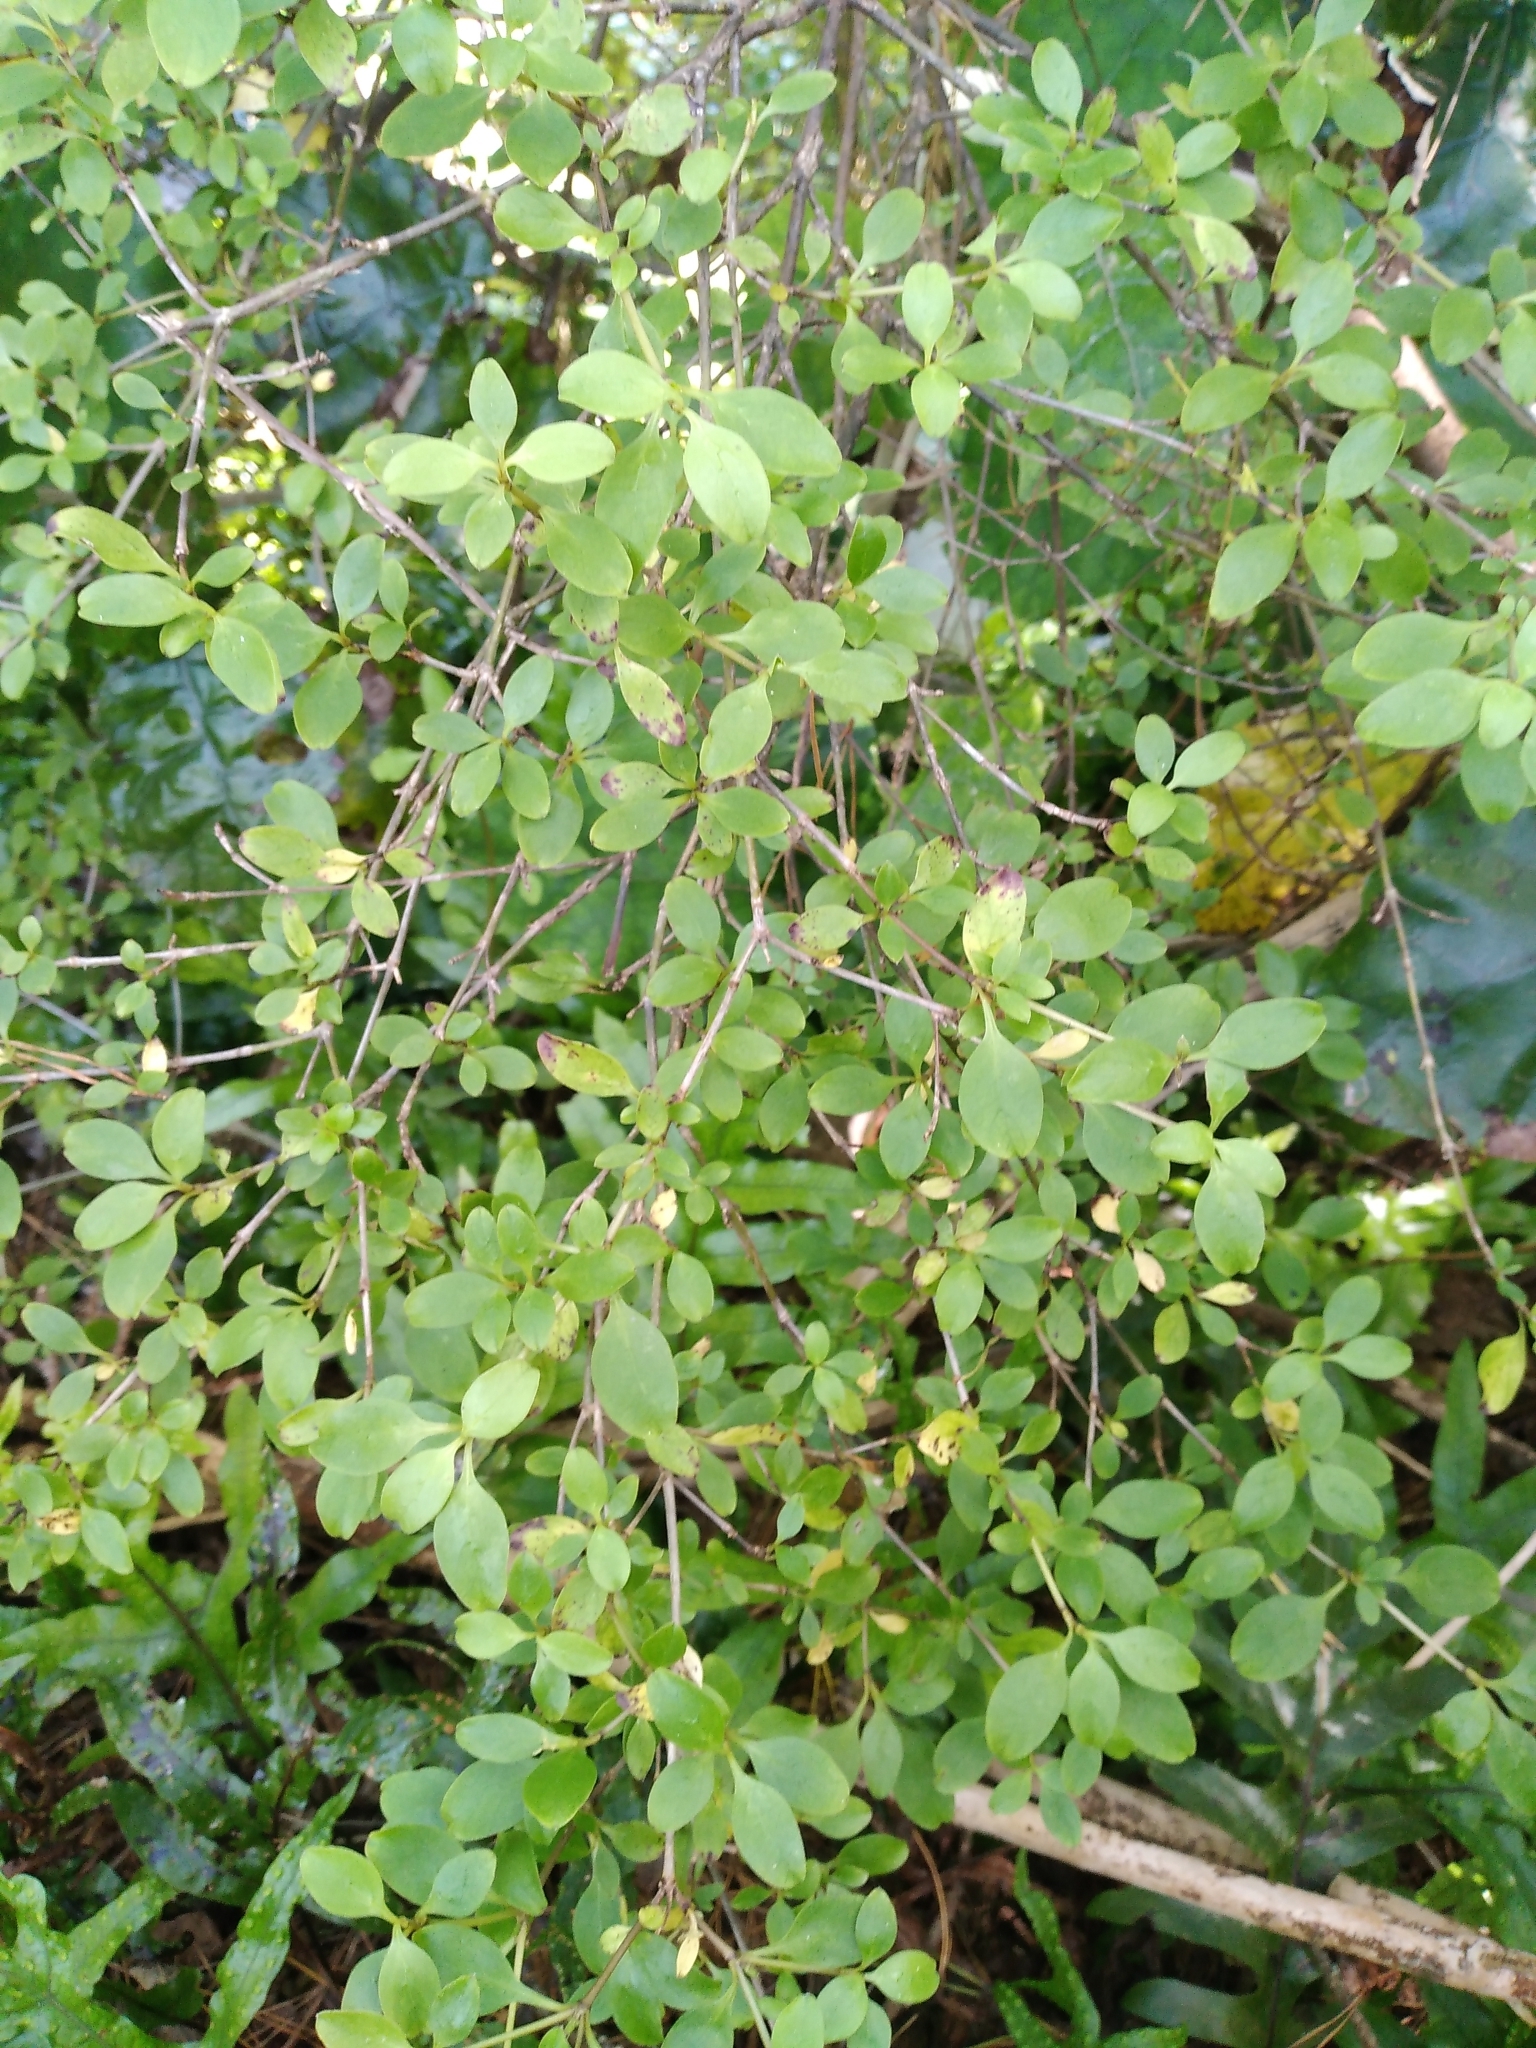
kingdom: Plantae
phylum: Tracheophyta
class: Magnoliopsida
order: Gentianales
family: Rubiaceae
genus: Coprosma
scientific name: Coprosma foetidissima
